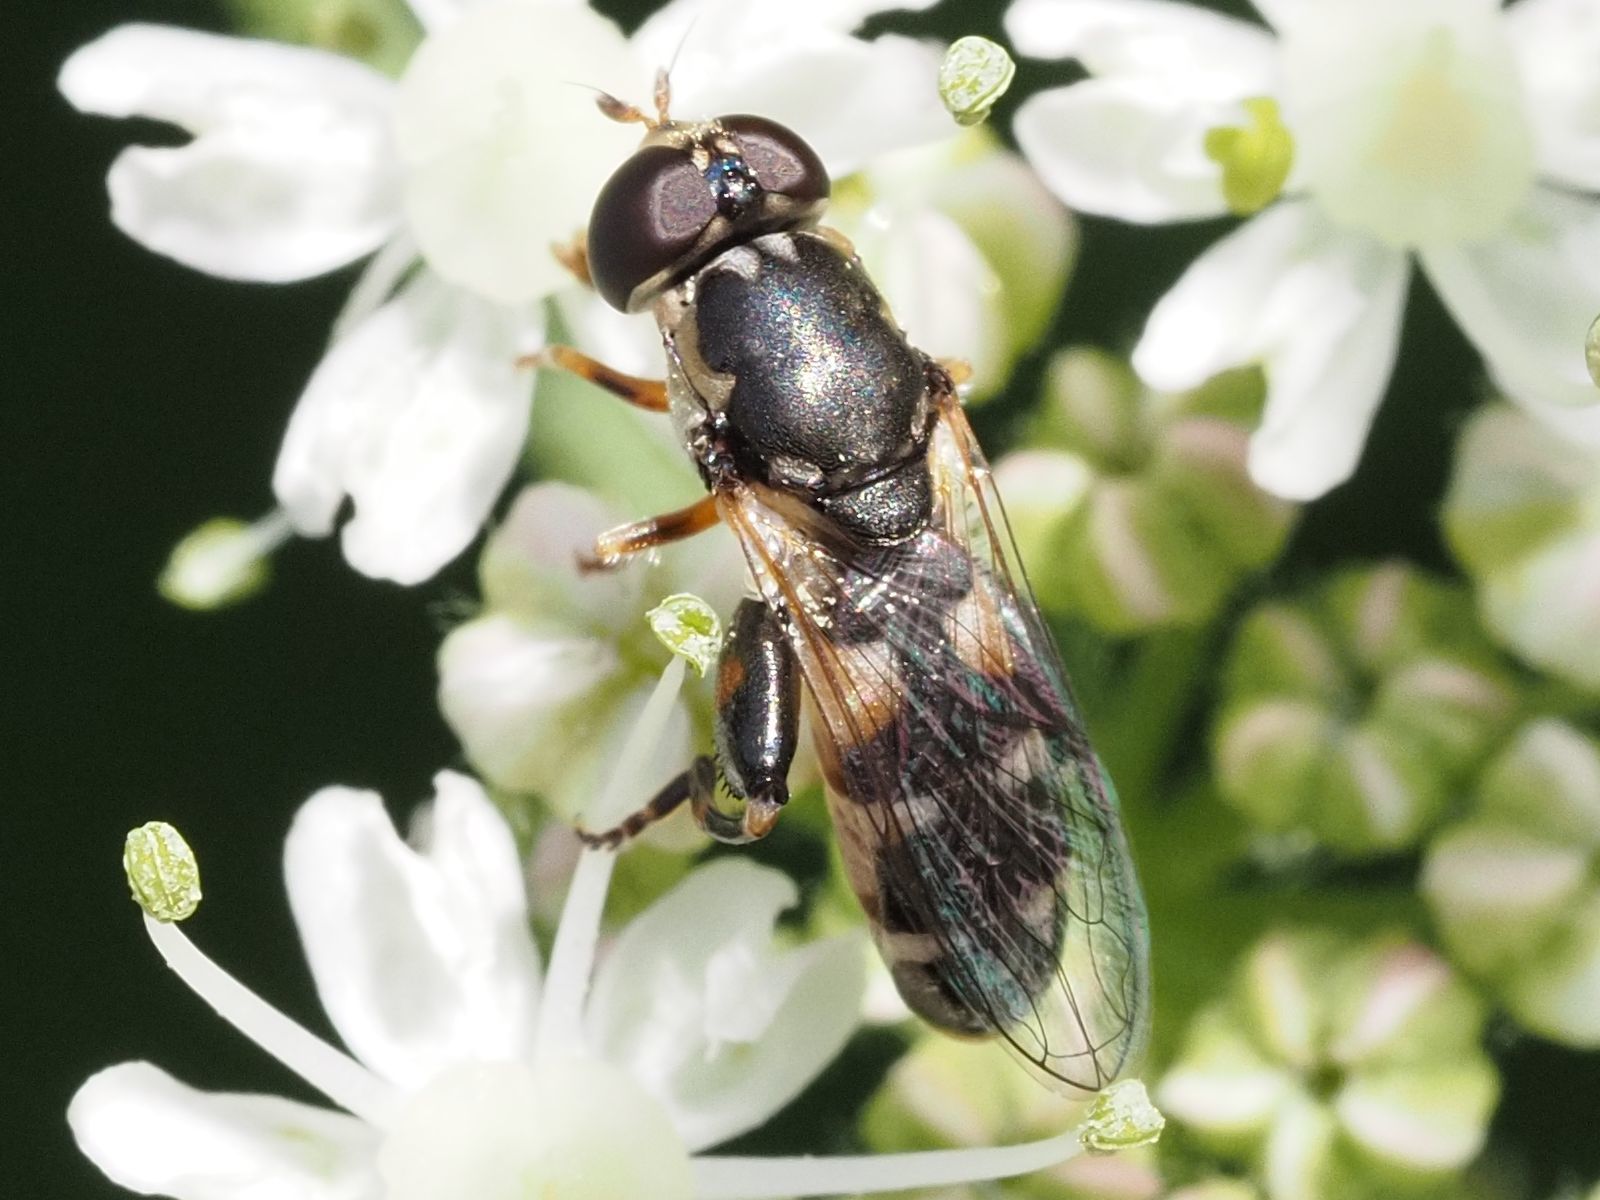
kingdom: Animalia
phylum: Arthropoda
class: Insecta
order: Diptera
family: Syrphidae
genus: Syritta
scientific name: Syritta pipiens
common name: Hover fly
